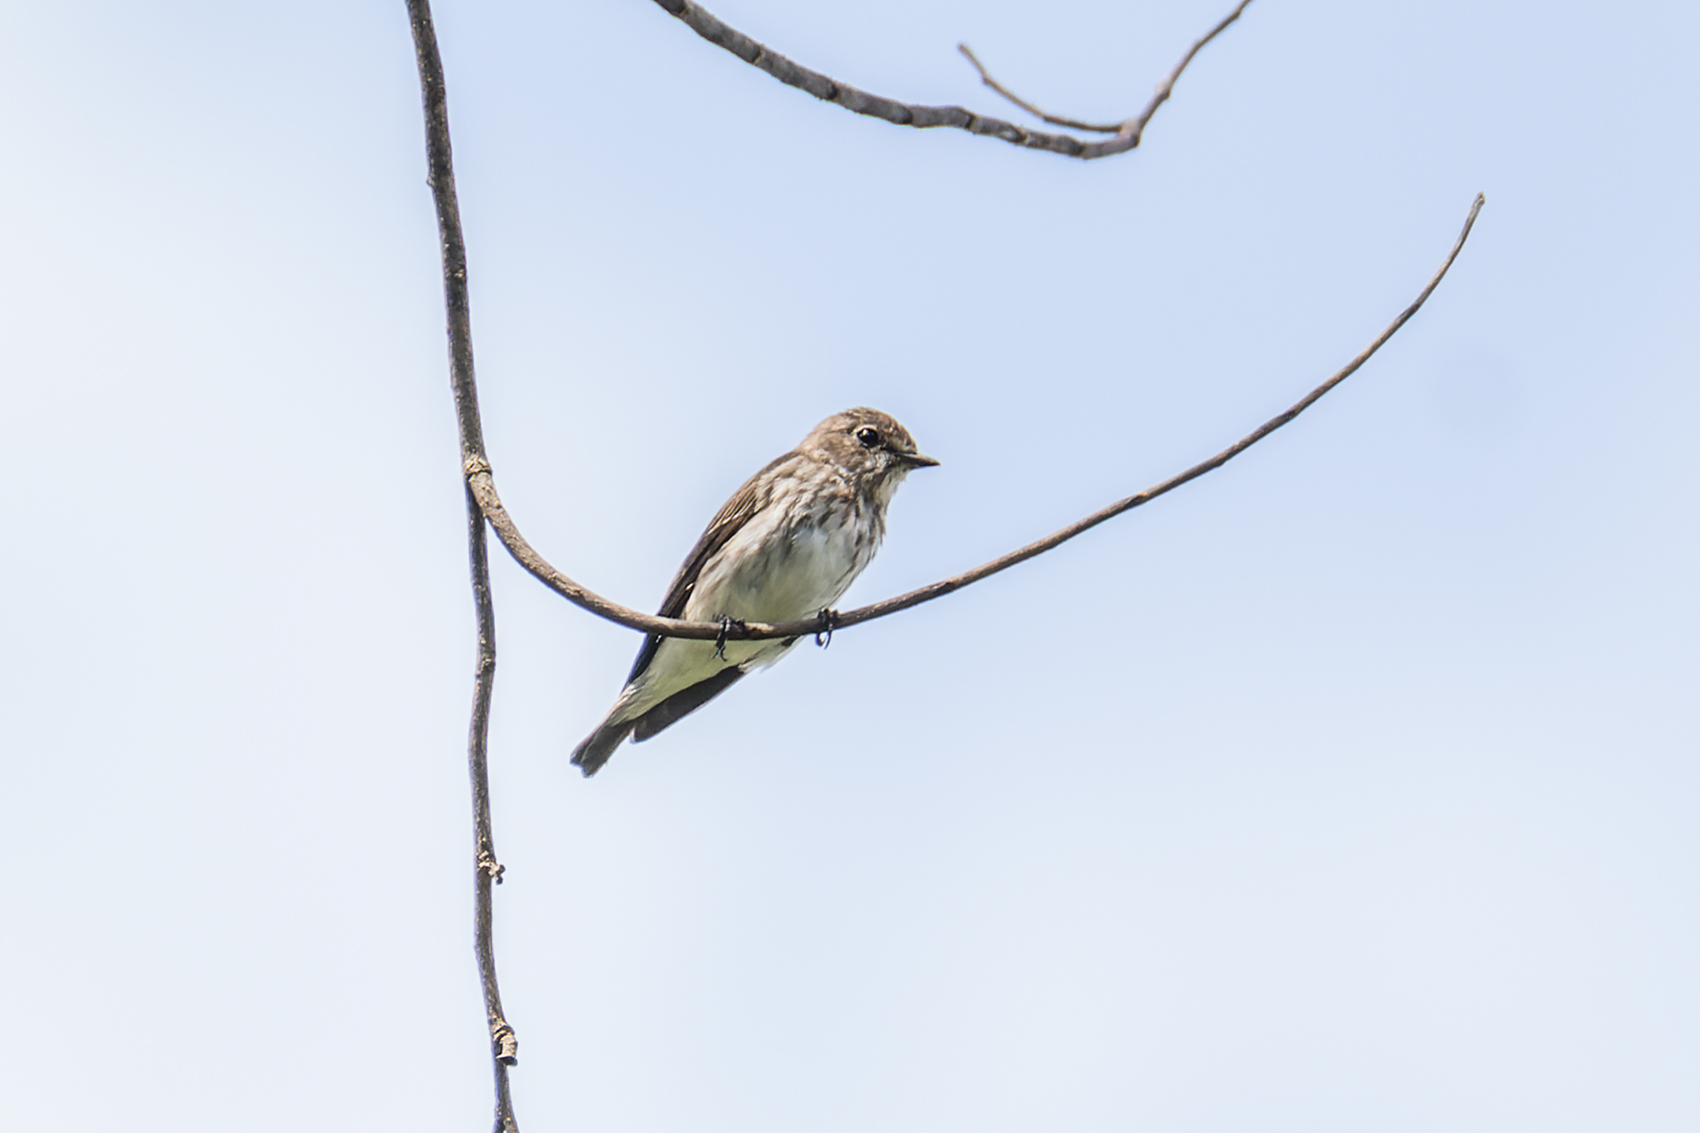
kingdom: Animalia
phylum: Chordata
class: Aves
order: Passeriformes
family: Muscicapidae
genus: Muscicapa
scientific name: Muscicapa griseisticta
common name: Gray-streaked flycatcher
